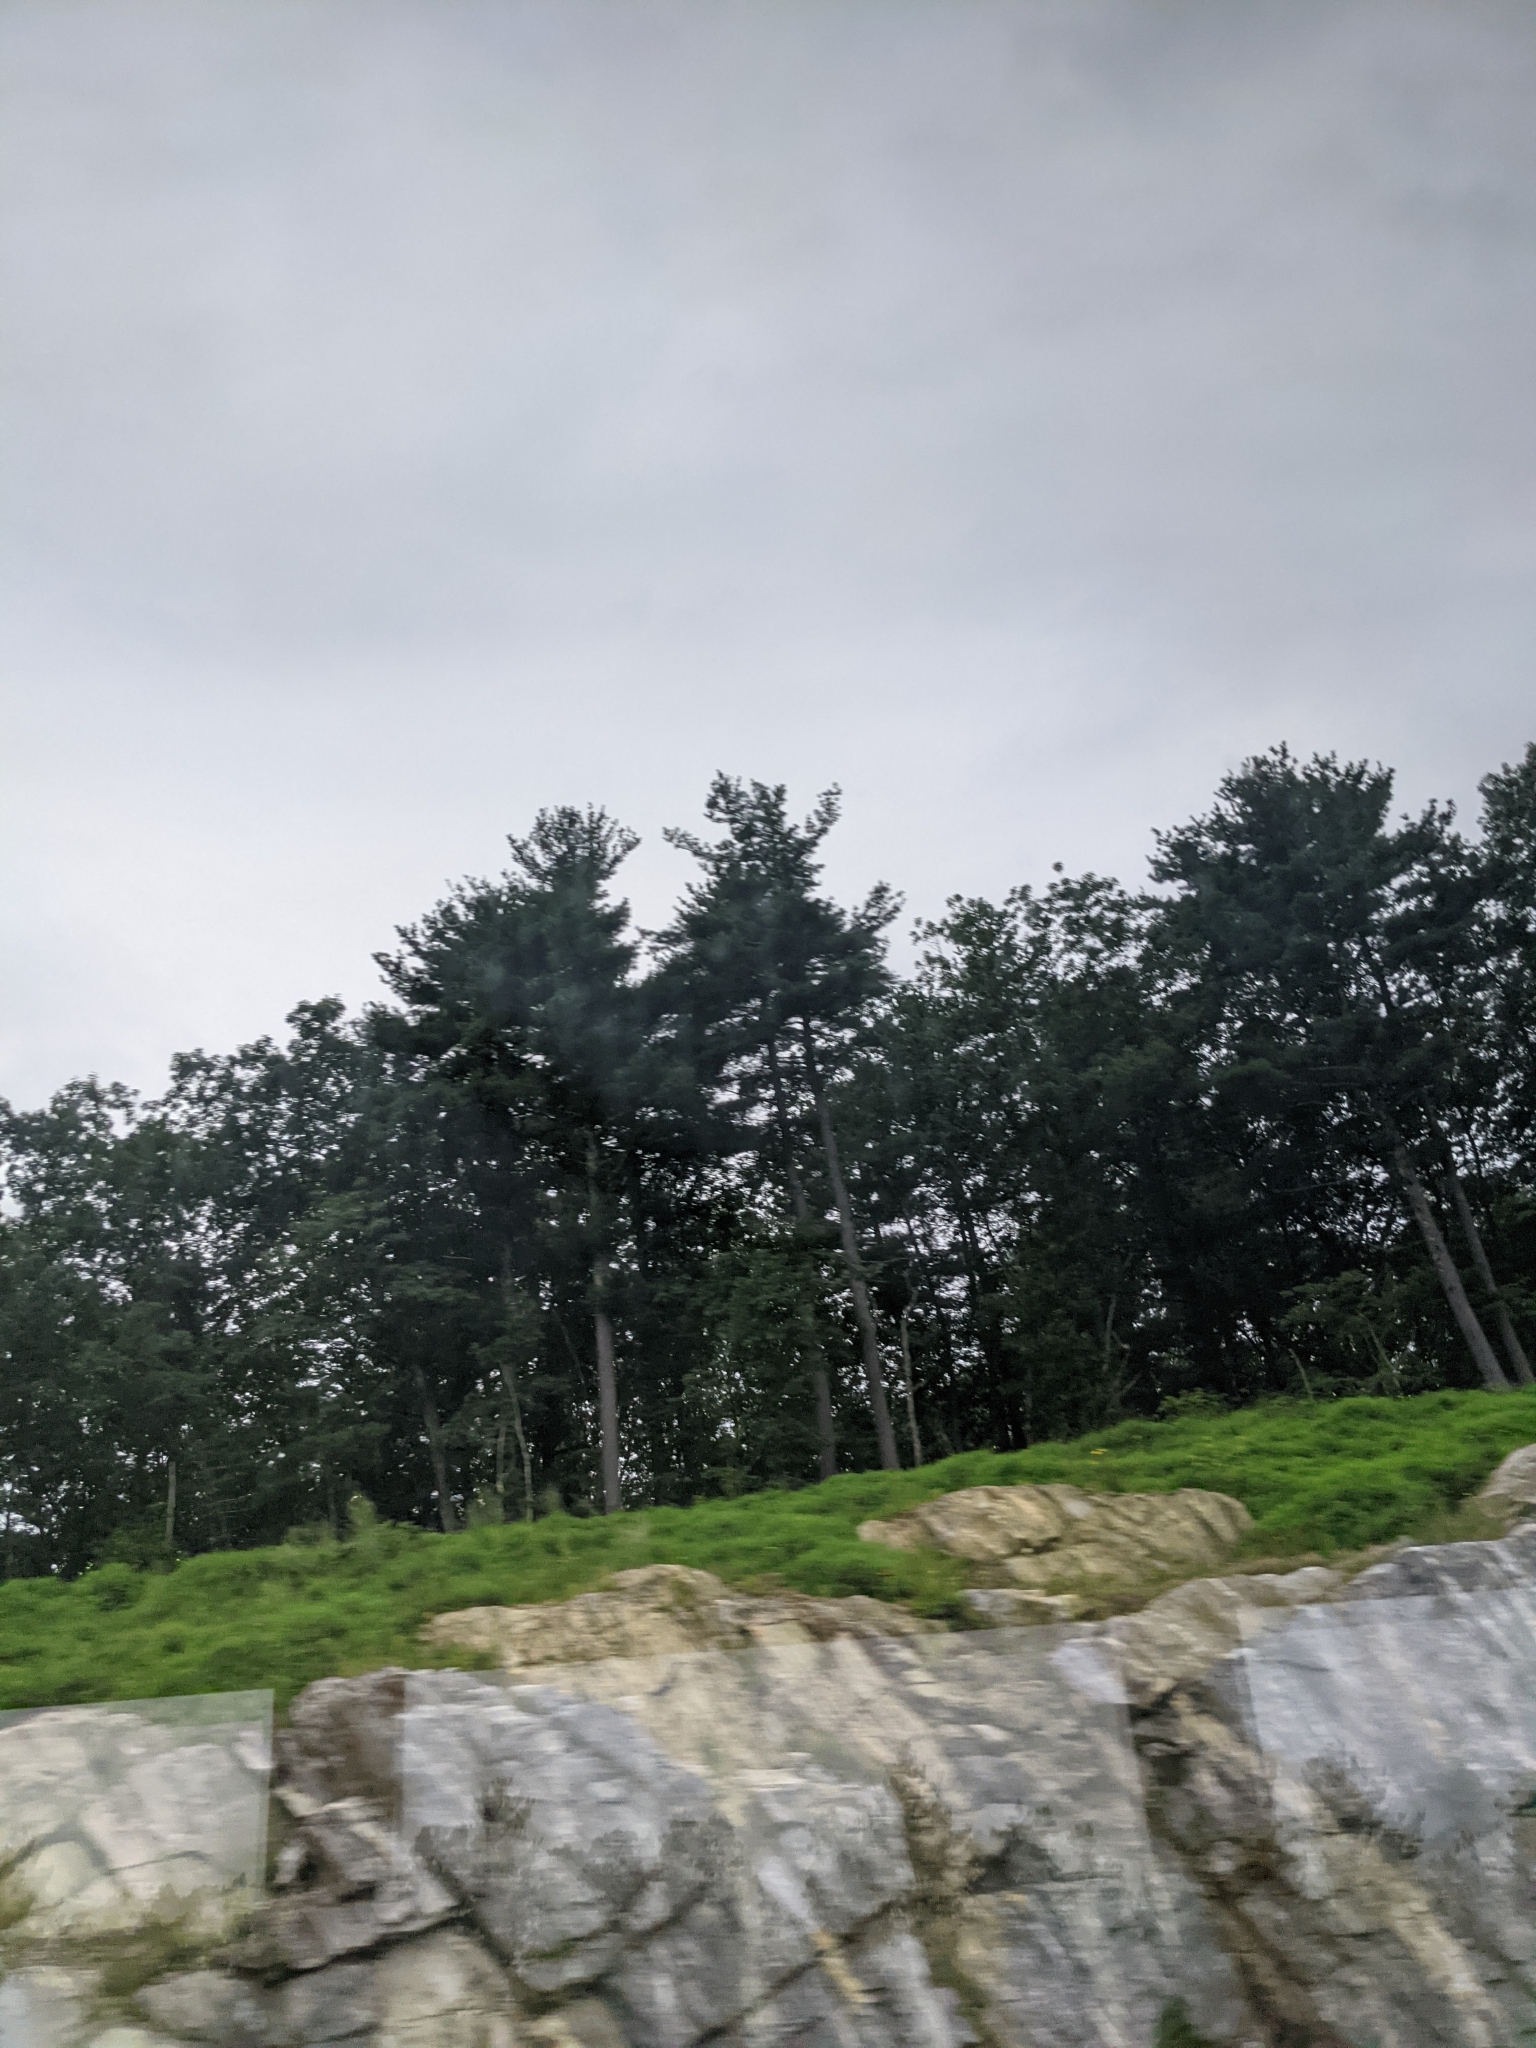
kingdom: Plantae
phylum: Tracheophyta
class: Pinopsida
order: Pinales
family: Pinaceae
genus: Pinus
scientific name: Pinus strobus
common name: Weymouth pine
